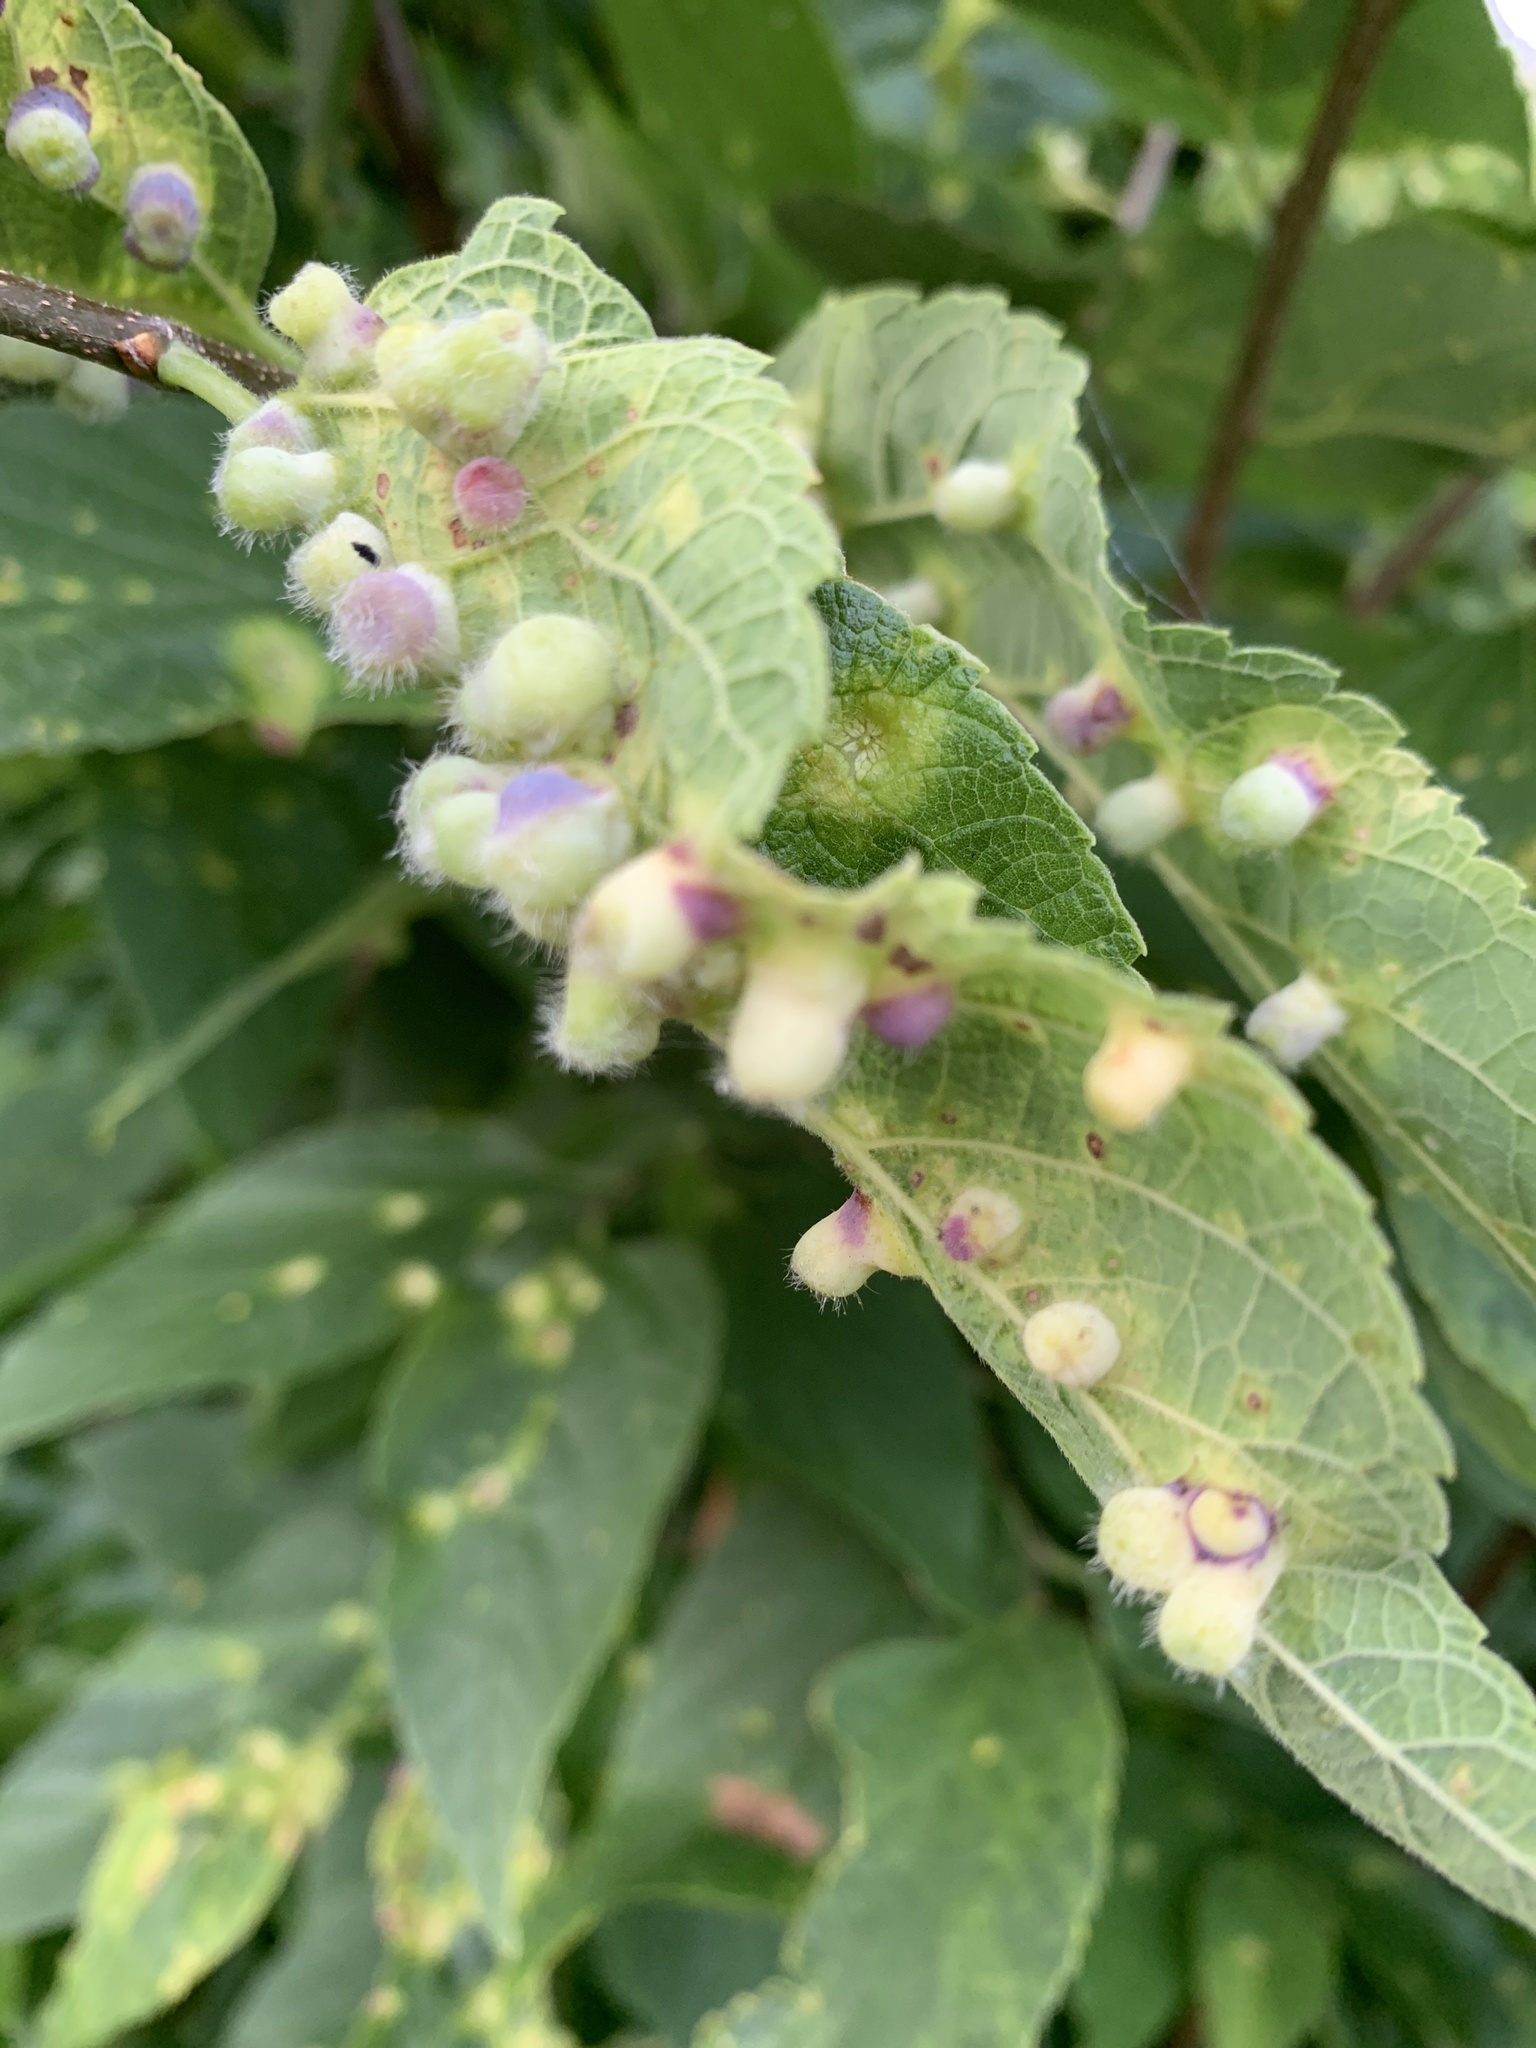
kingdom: Animalia
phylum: Arthropoda
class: Insecta
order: Hemiptera
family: Aphalaridae
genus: Pachypsylla
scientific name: Pachypsylla celtidismamma
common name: Hackberry nipplegall psyllid
